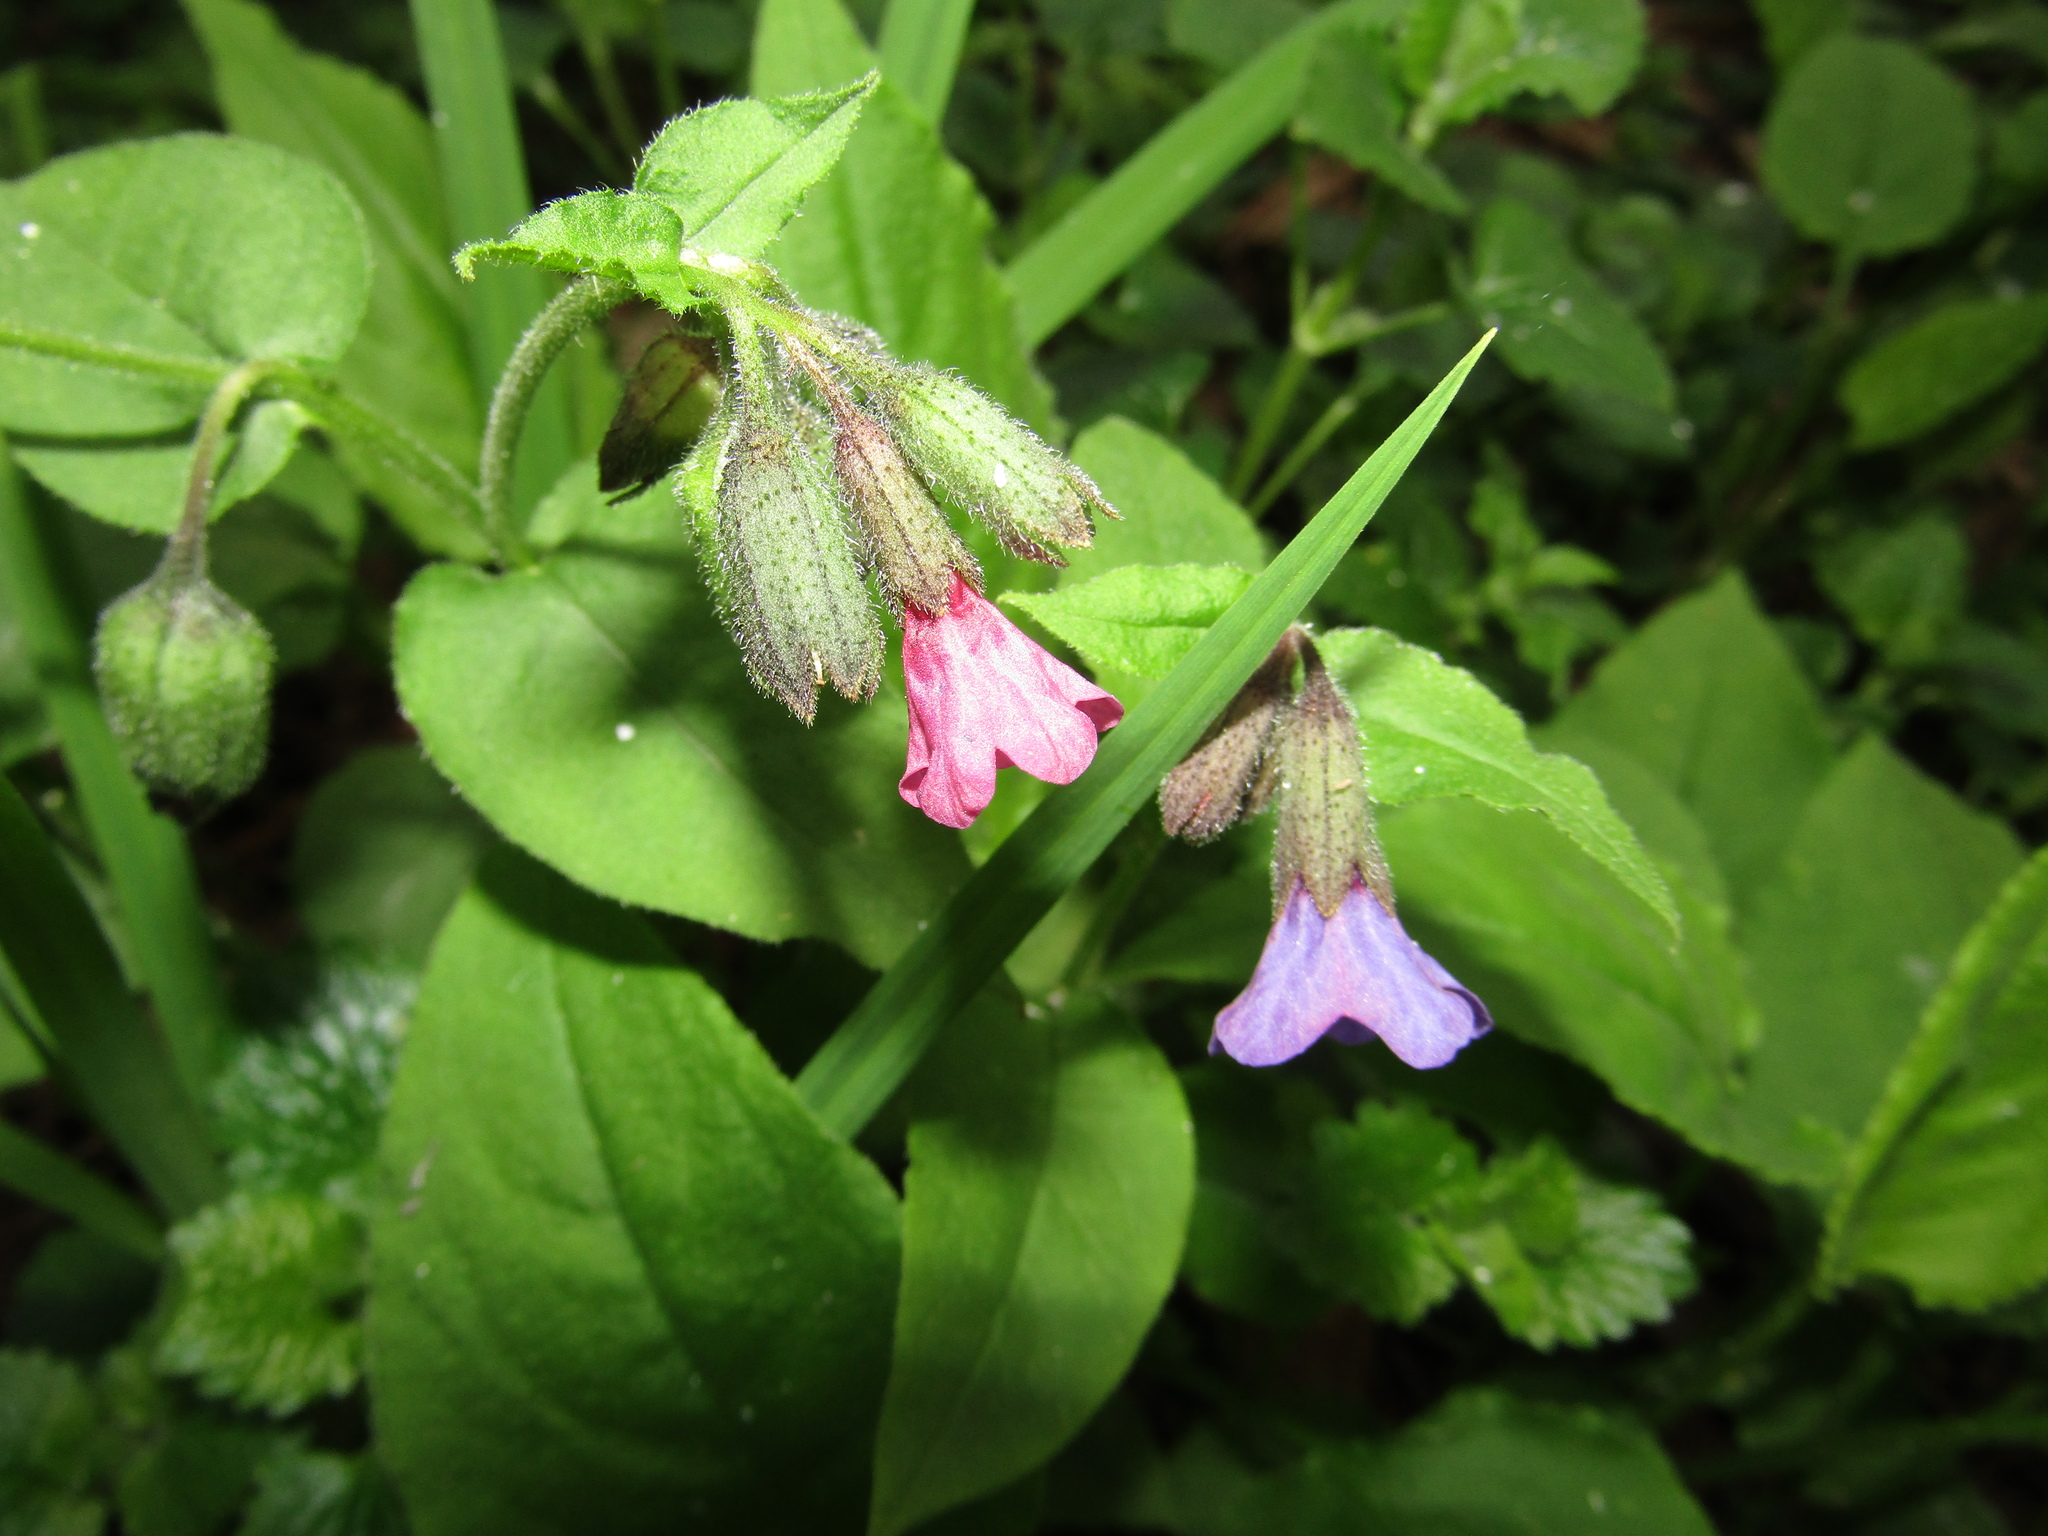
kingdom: Plantae
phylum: Tracheophyta
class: Magnoliopsida
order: Boraginales
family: Boraginaceae
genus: Pulmonaria
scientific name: Pulmonaria obscura
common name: Suffolk lungwort
